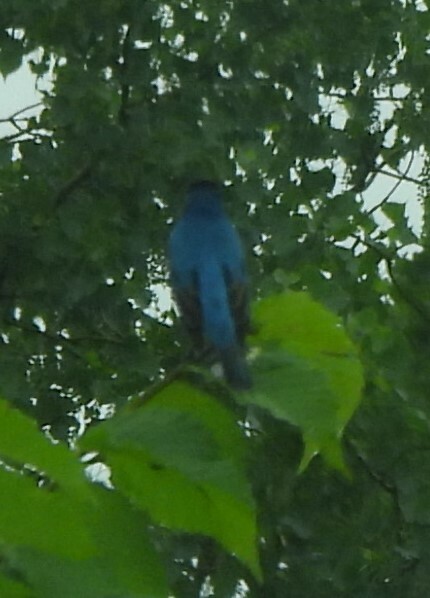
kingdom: Animalia
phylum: Chordata
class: Aves
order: Passeriformes
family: Cardinalidae
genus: Passerina
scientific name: Passerina cyanea
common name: Indigo bunting
